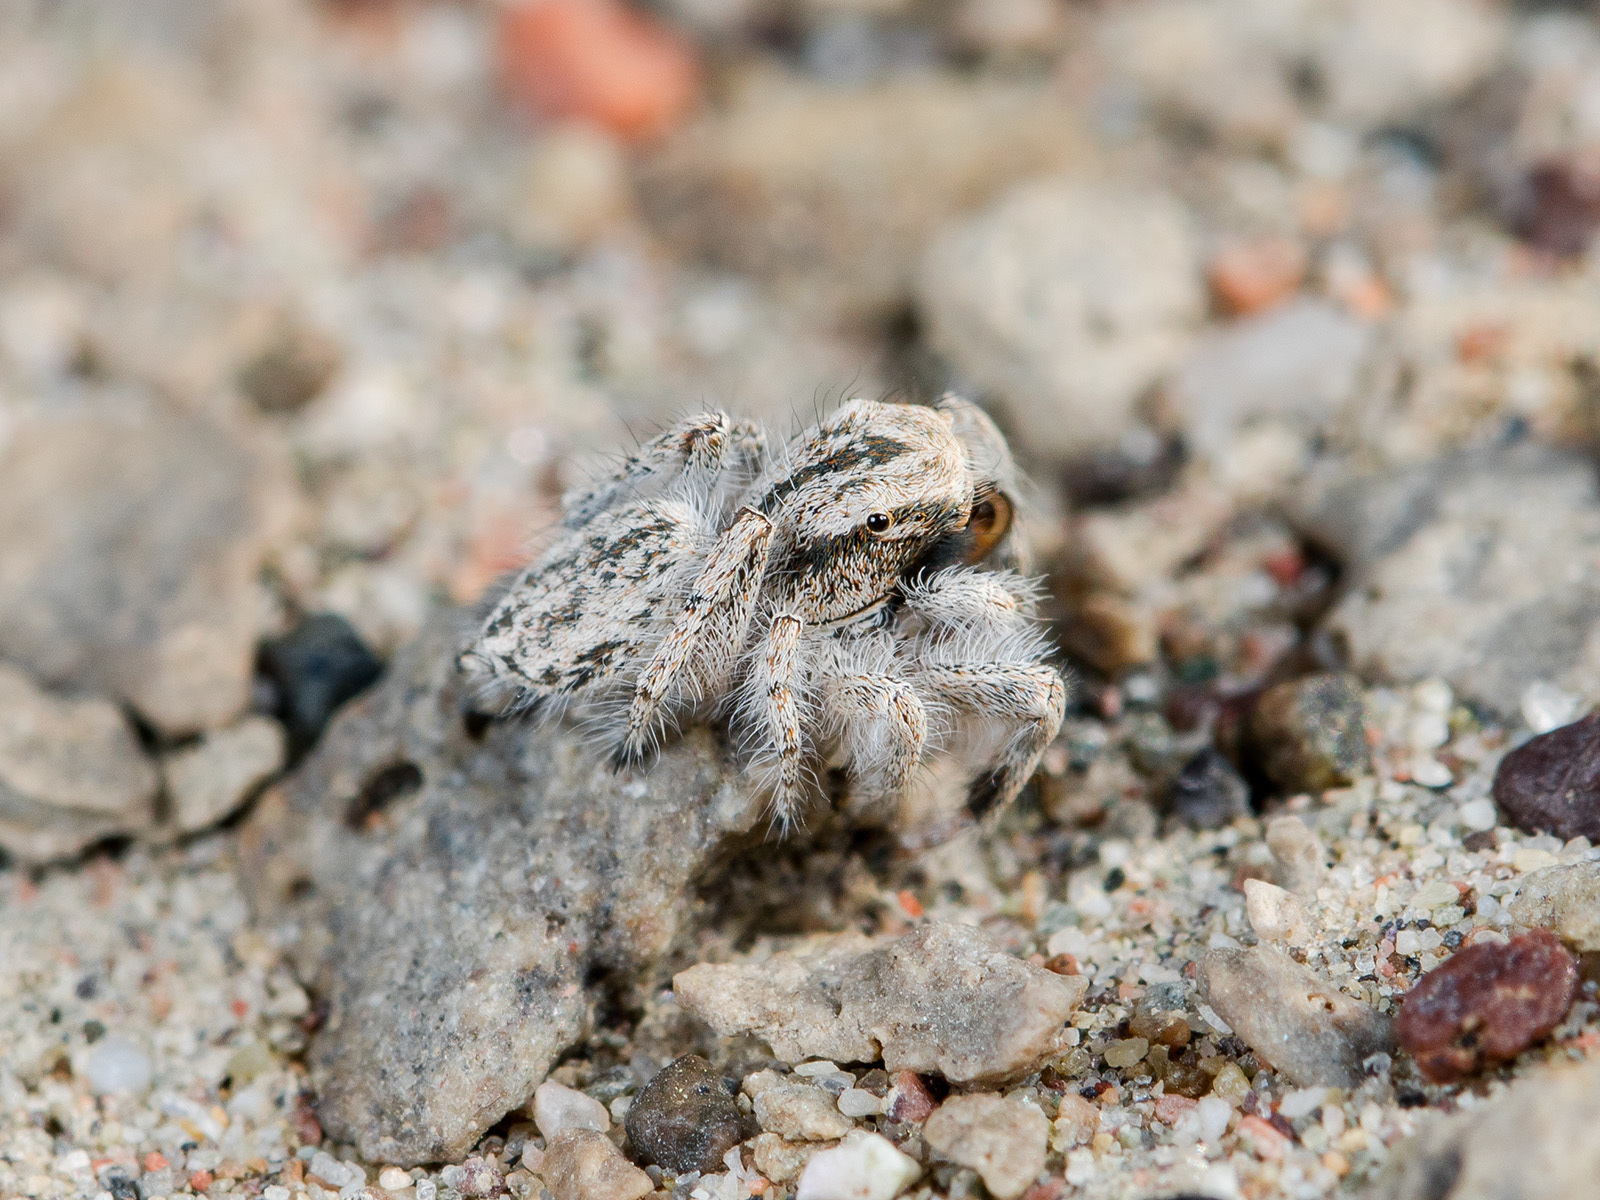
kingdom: Animalia
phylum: Arthropoda
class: Arachnida
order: Araneae
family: Salticidae
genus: Marusyllus
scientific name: Marusyllus aralicus
